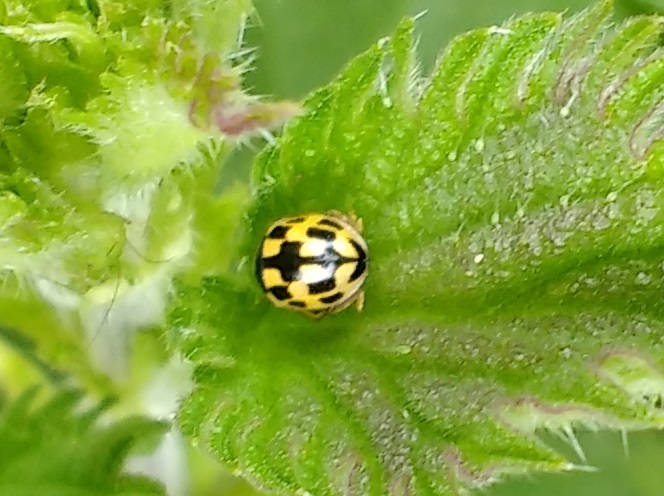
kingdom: Animalia
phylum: Arthropoda
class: Insecta
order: Coleoptera
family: Coccinellidae
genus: Propylaea
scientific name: Propylaea quatuordecimpunctata
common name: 14-spotted ladybird beetle
